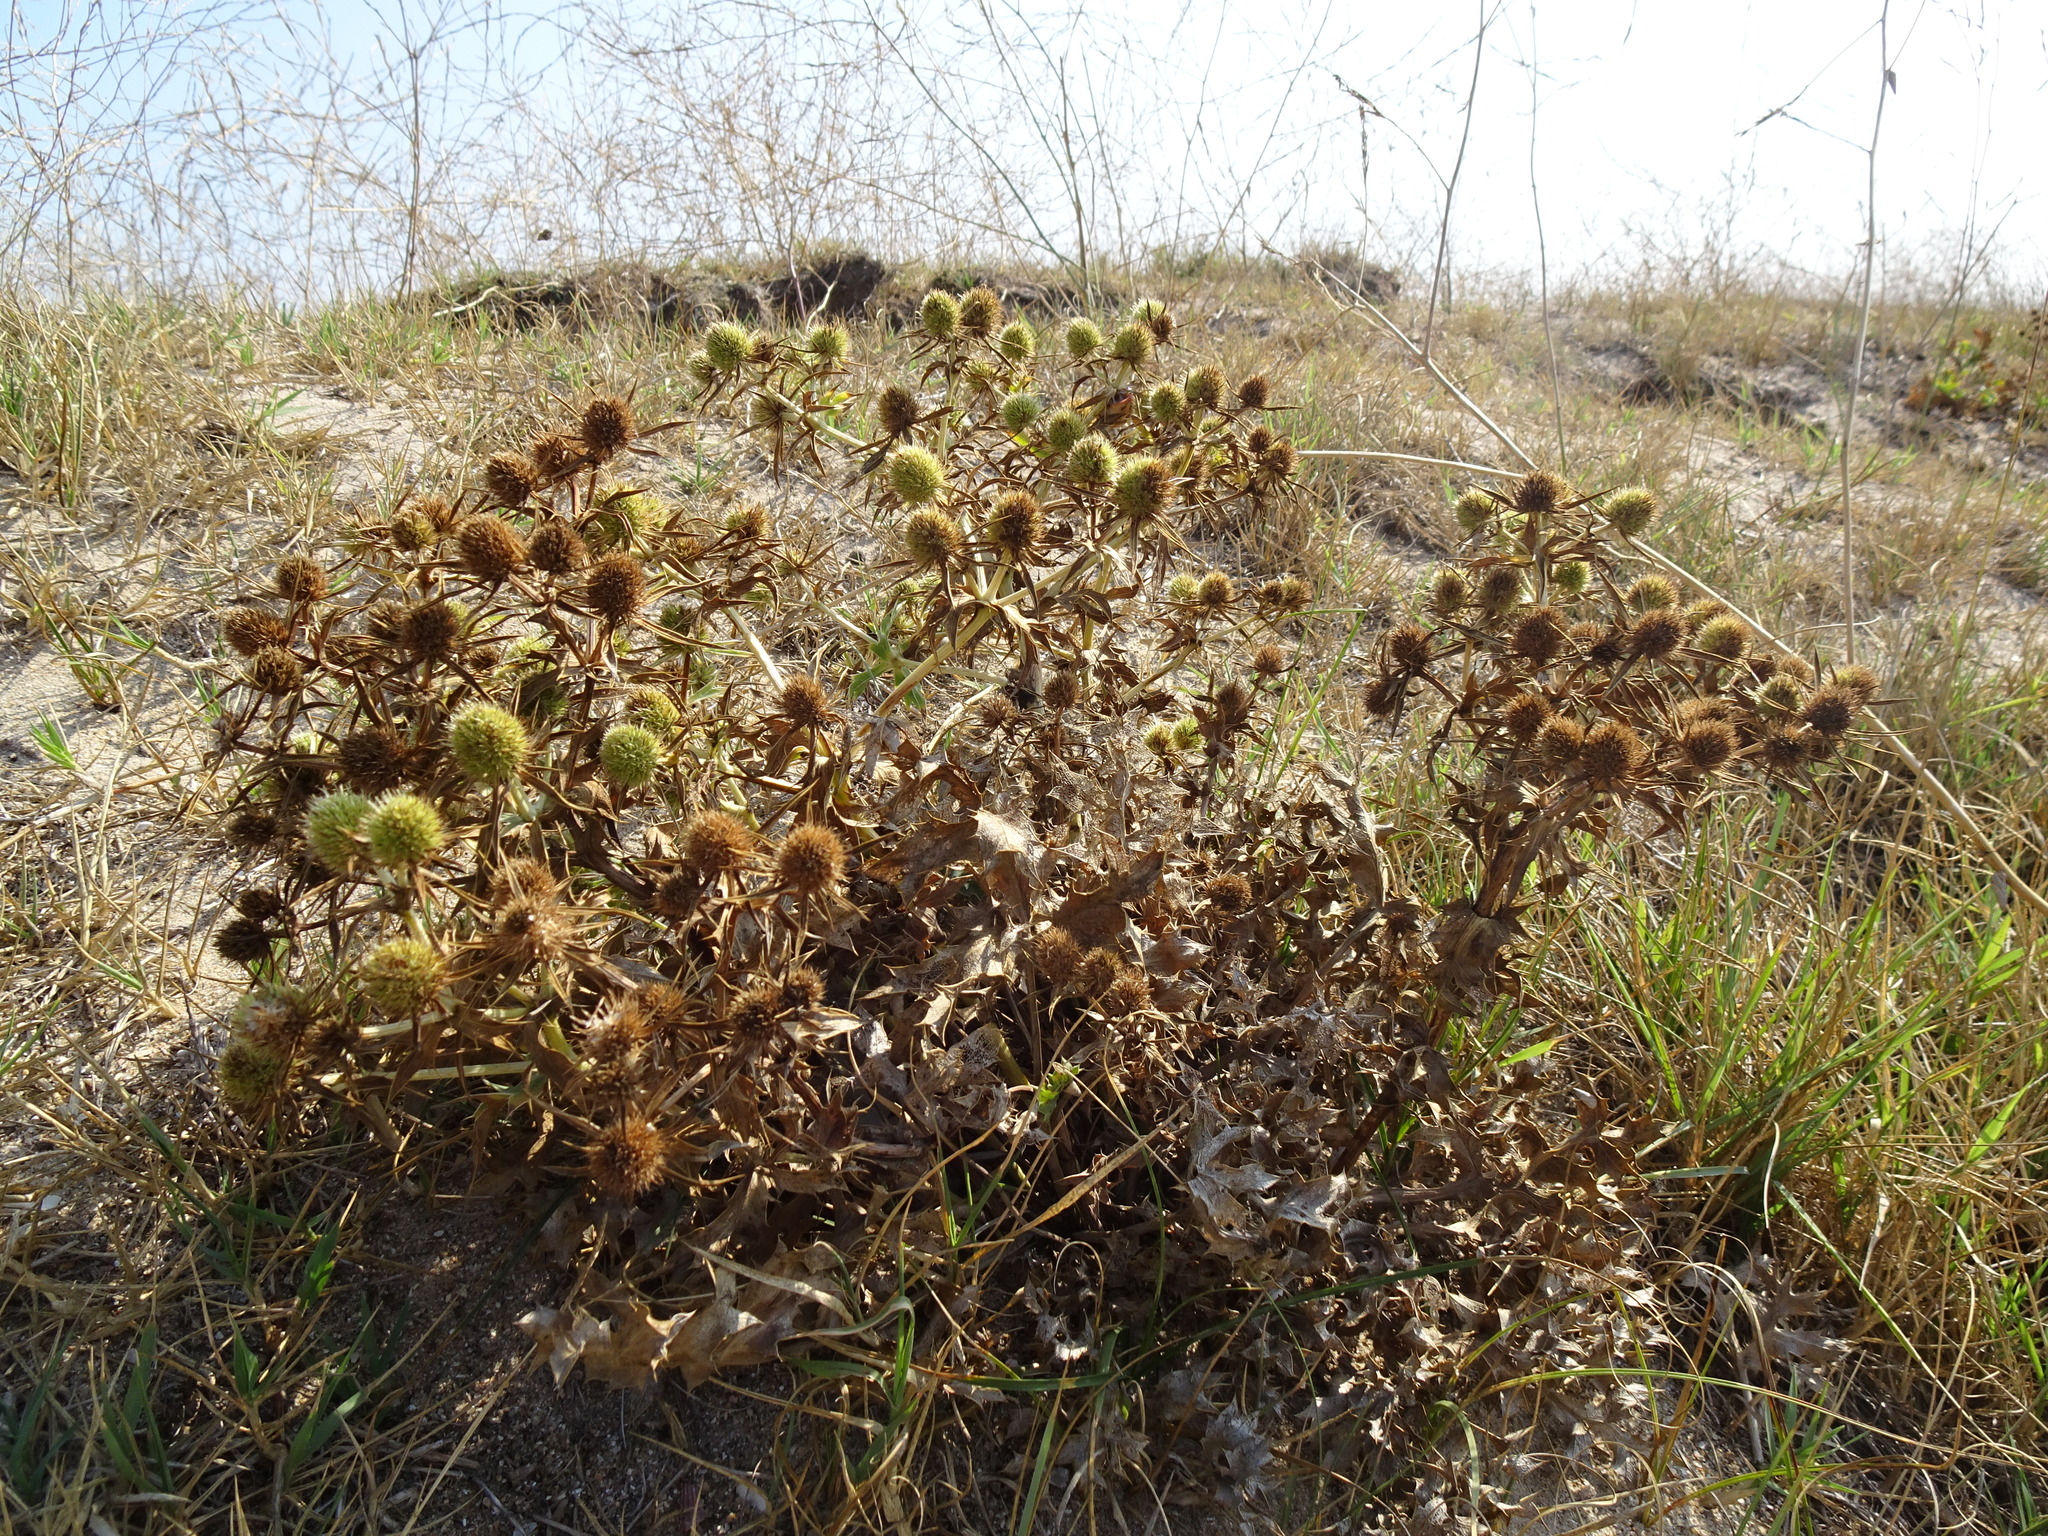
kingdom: Plantae
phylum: Tracheophyta
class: Magnoliopsida
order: Apiales
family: Apiaceae
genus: Eryngium
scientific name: Eryngium campestre
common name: Field eryngo
